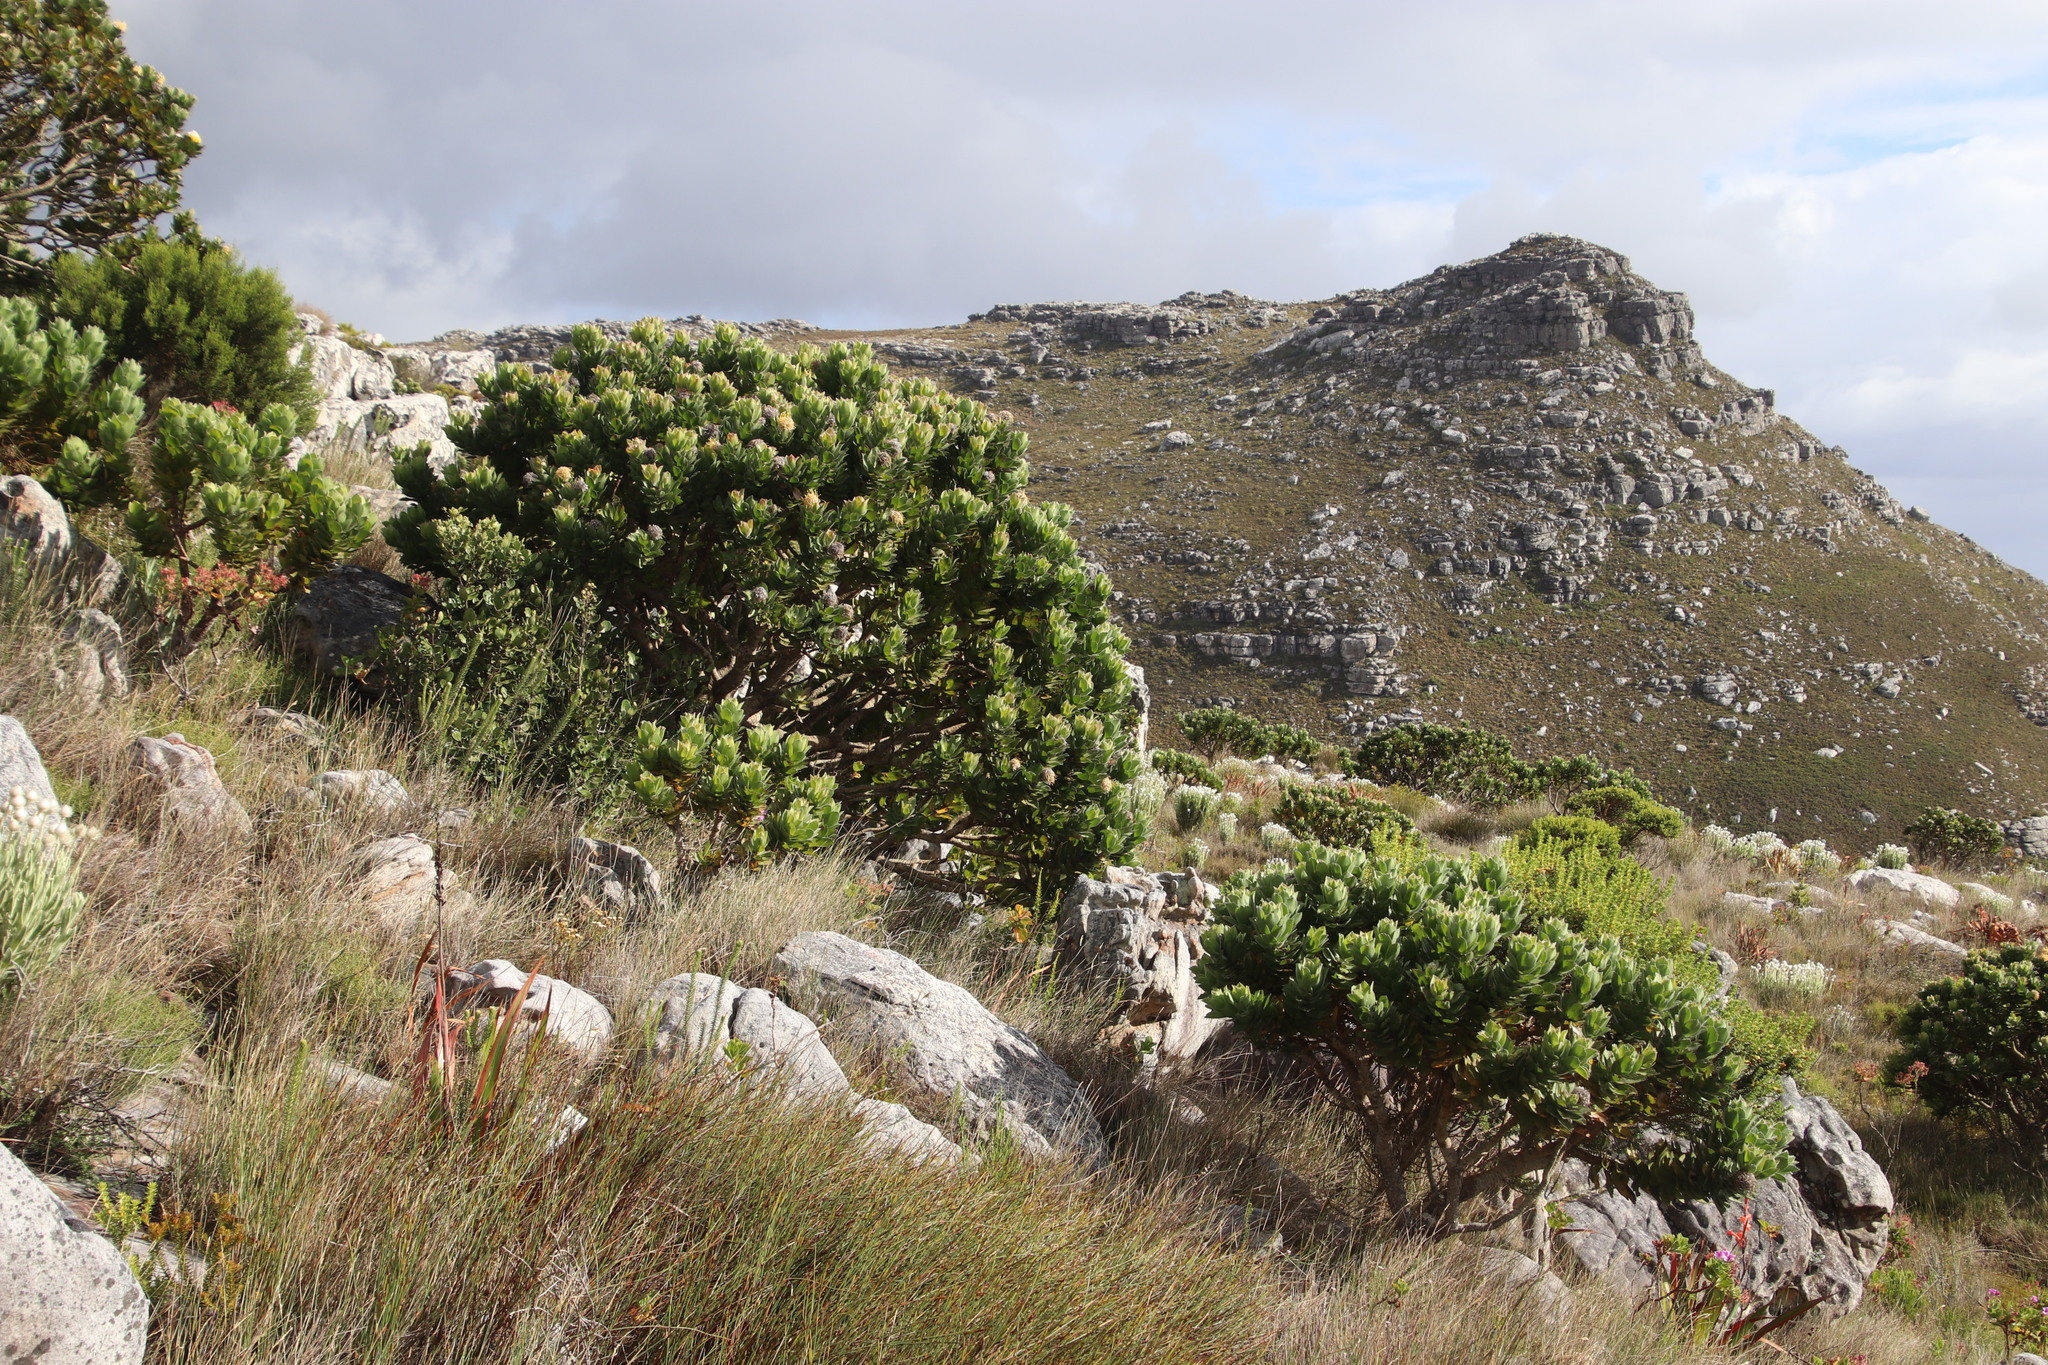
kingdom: Plantae
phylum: Tracheophyta
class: Magnoliopsida
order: Proteales
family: Proteaceae
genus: Leucospermum
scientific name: Leucospermum conocarpodendron
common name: Tree pincushion
